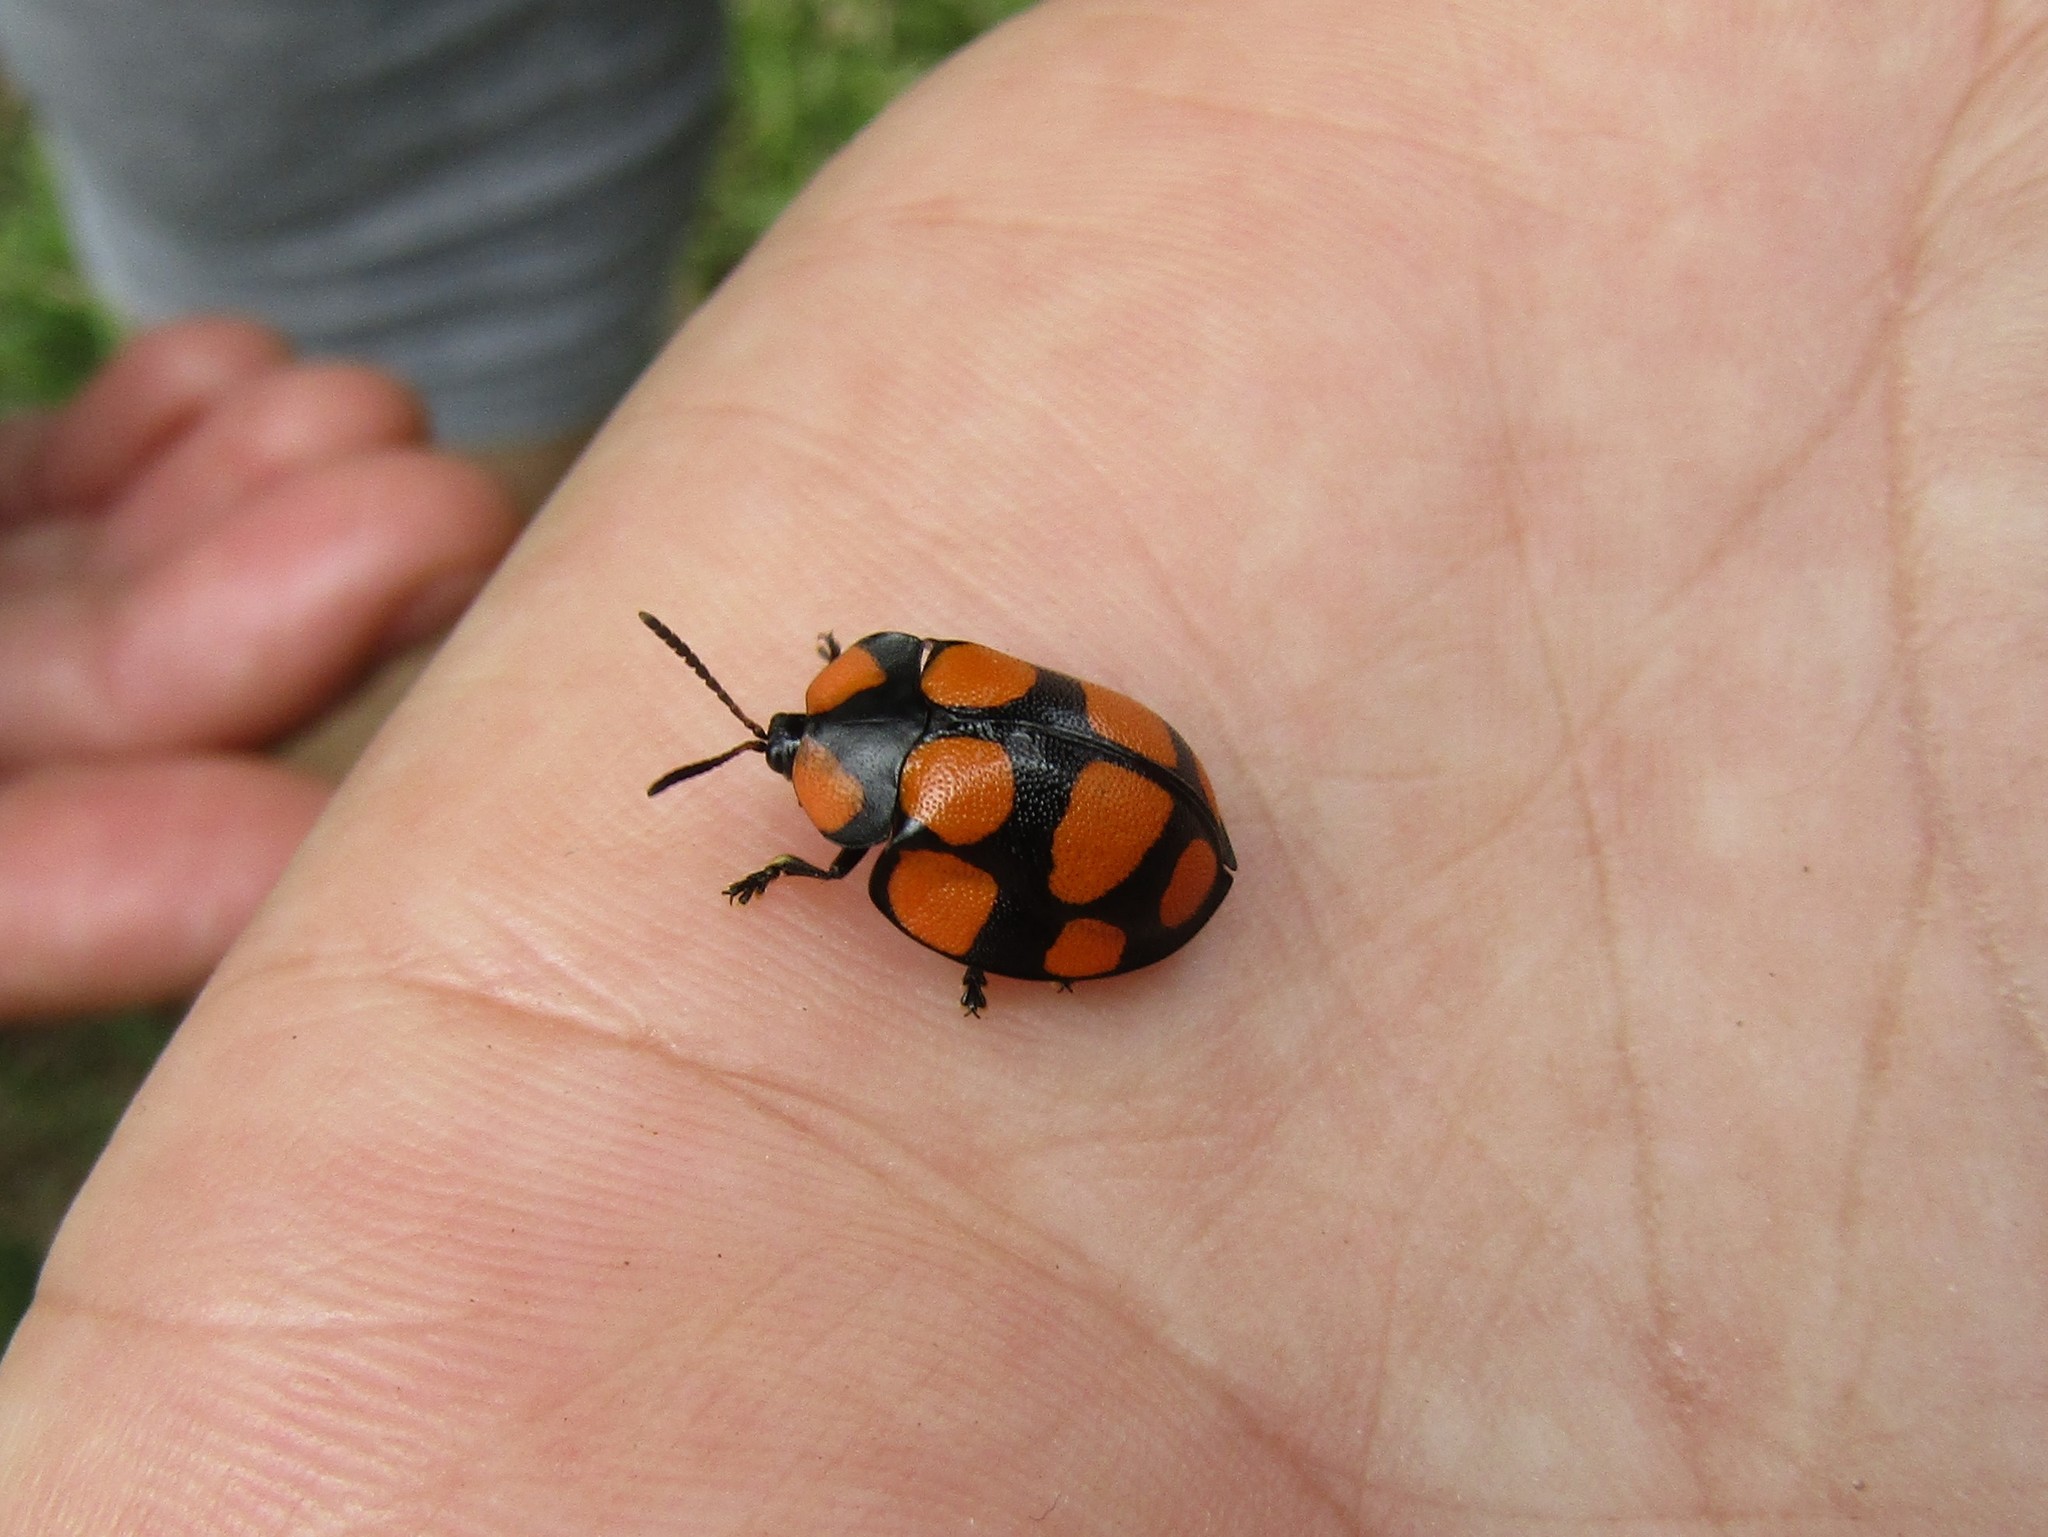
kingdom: Animalia
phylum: Arthropoda
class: Insecta
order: Coleoptera
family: Chrysomelidae
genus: Botanochara
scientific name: Botanochara decempustulata
